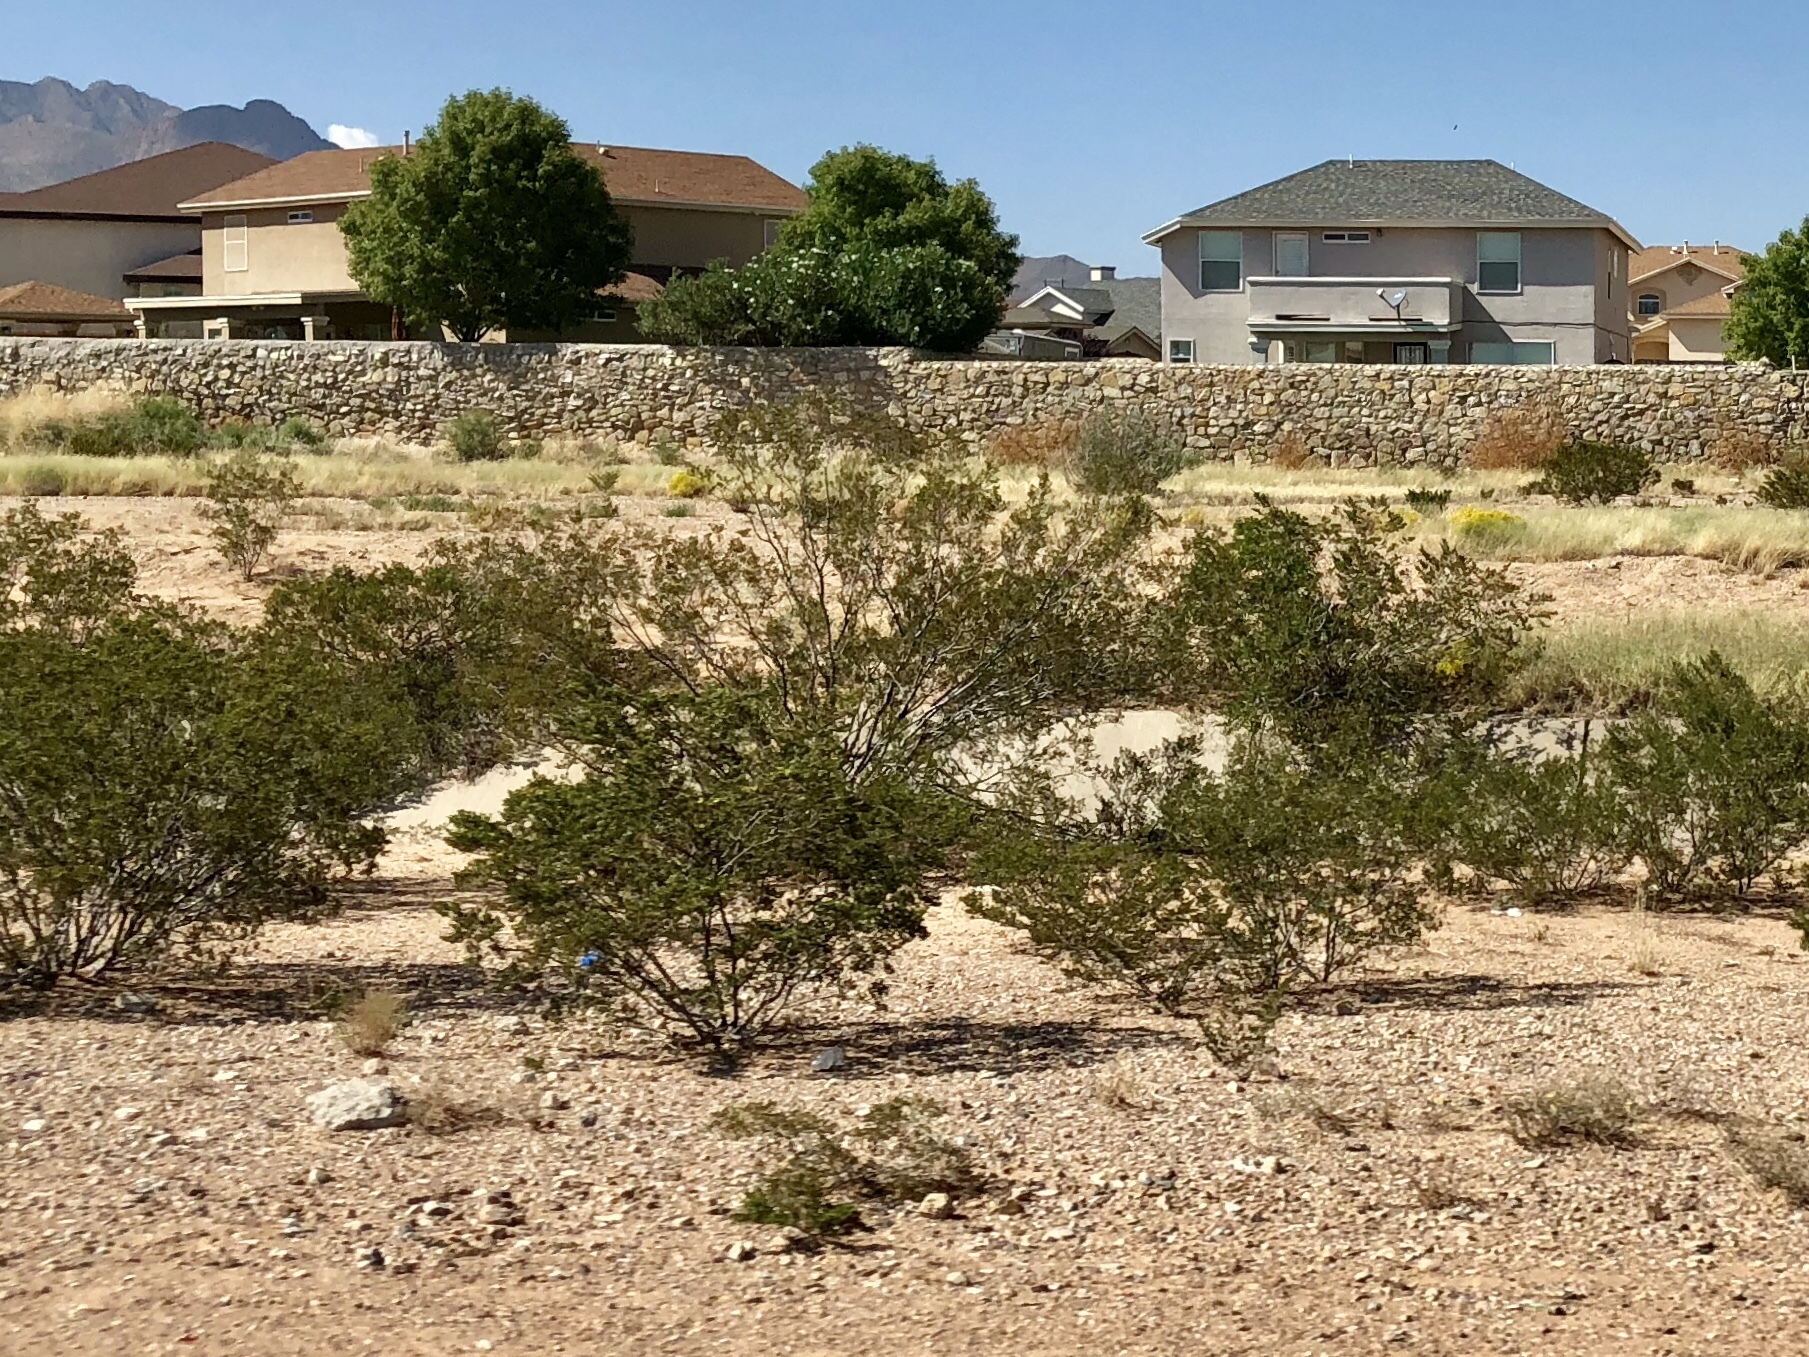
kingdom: Plantae
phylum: Tracheophyta
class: Magnoliopsida
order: Zygophyllales
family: Zygophyllaceae
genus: Larrea
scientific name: Larrea tridentata
